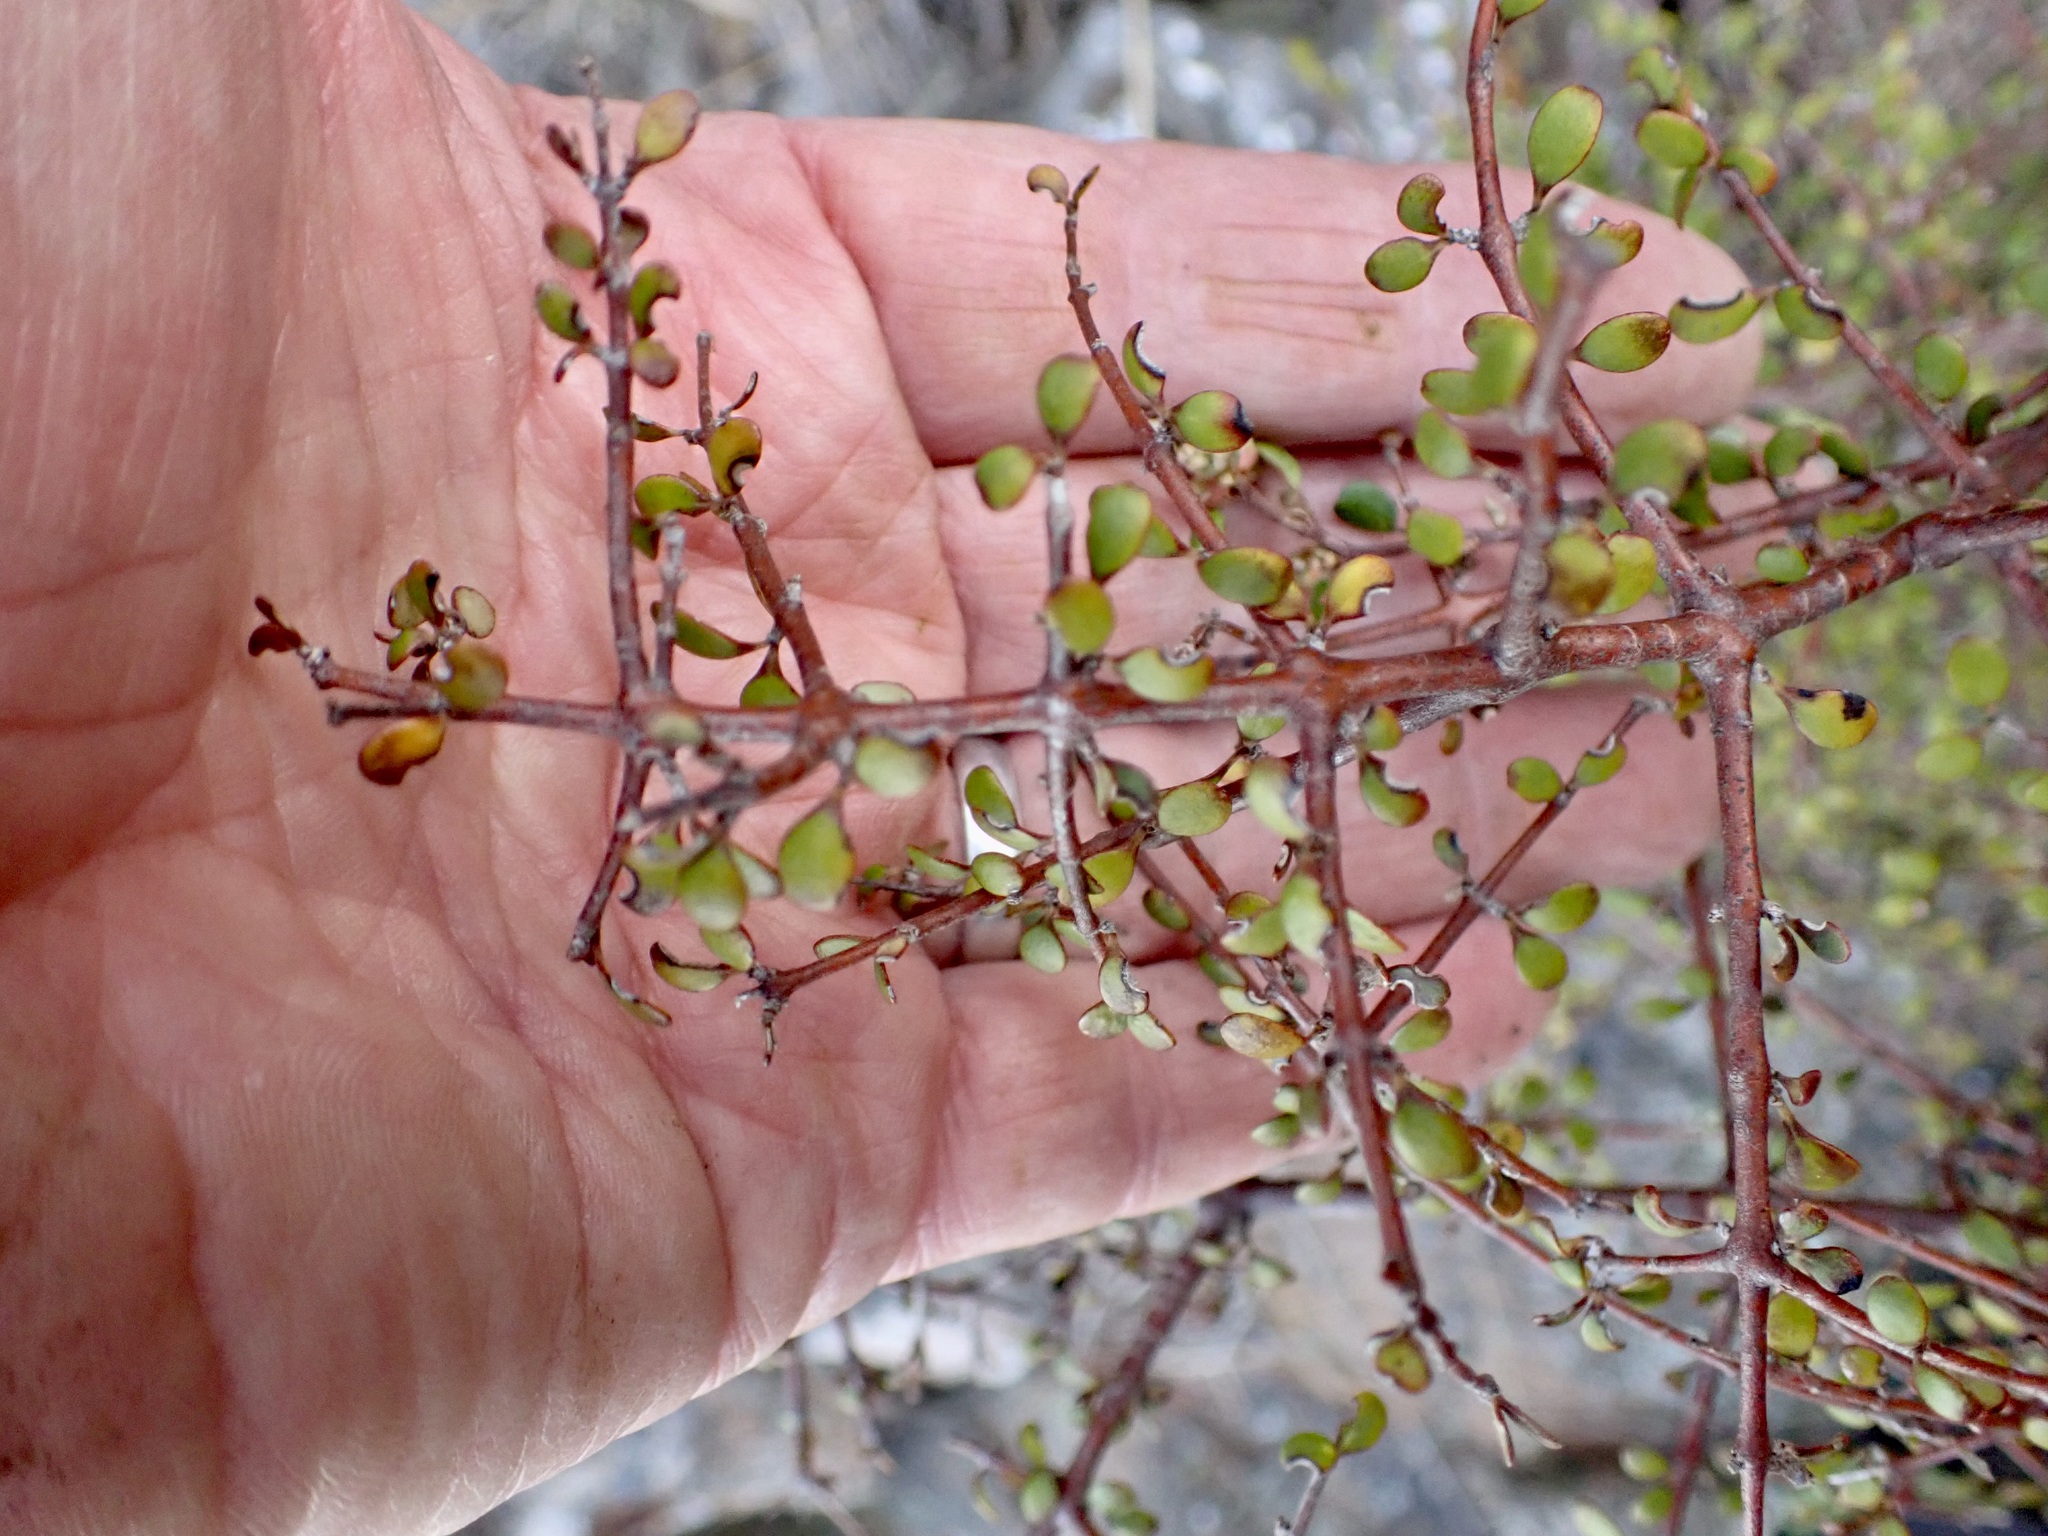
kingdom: Plantae
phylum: Tracheophyta
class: Magnoliopsida
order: Gentianales
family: Rubiaceae
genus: Coprosma
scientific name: Coprosma rigida
